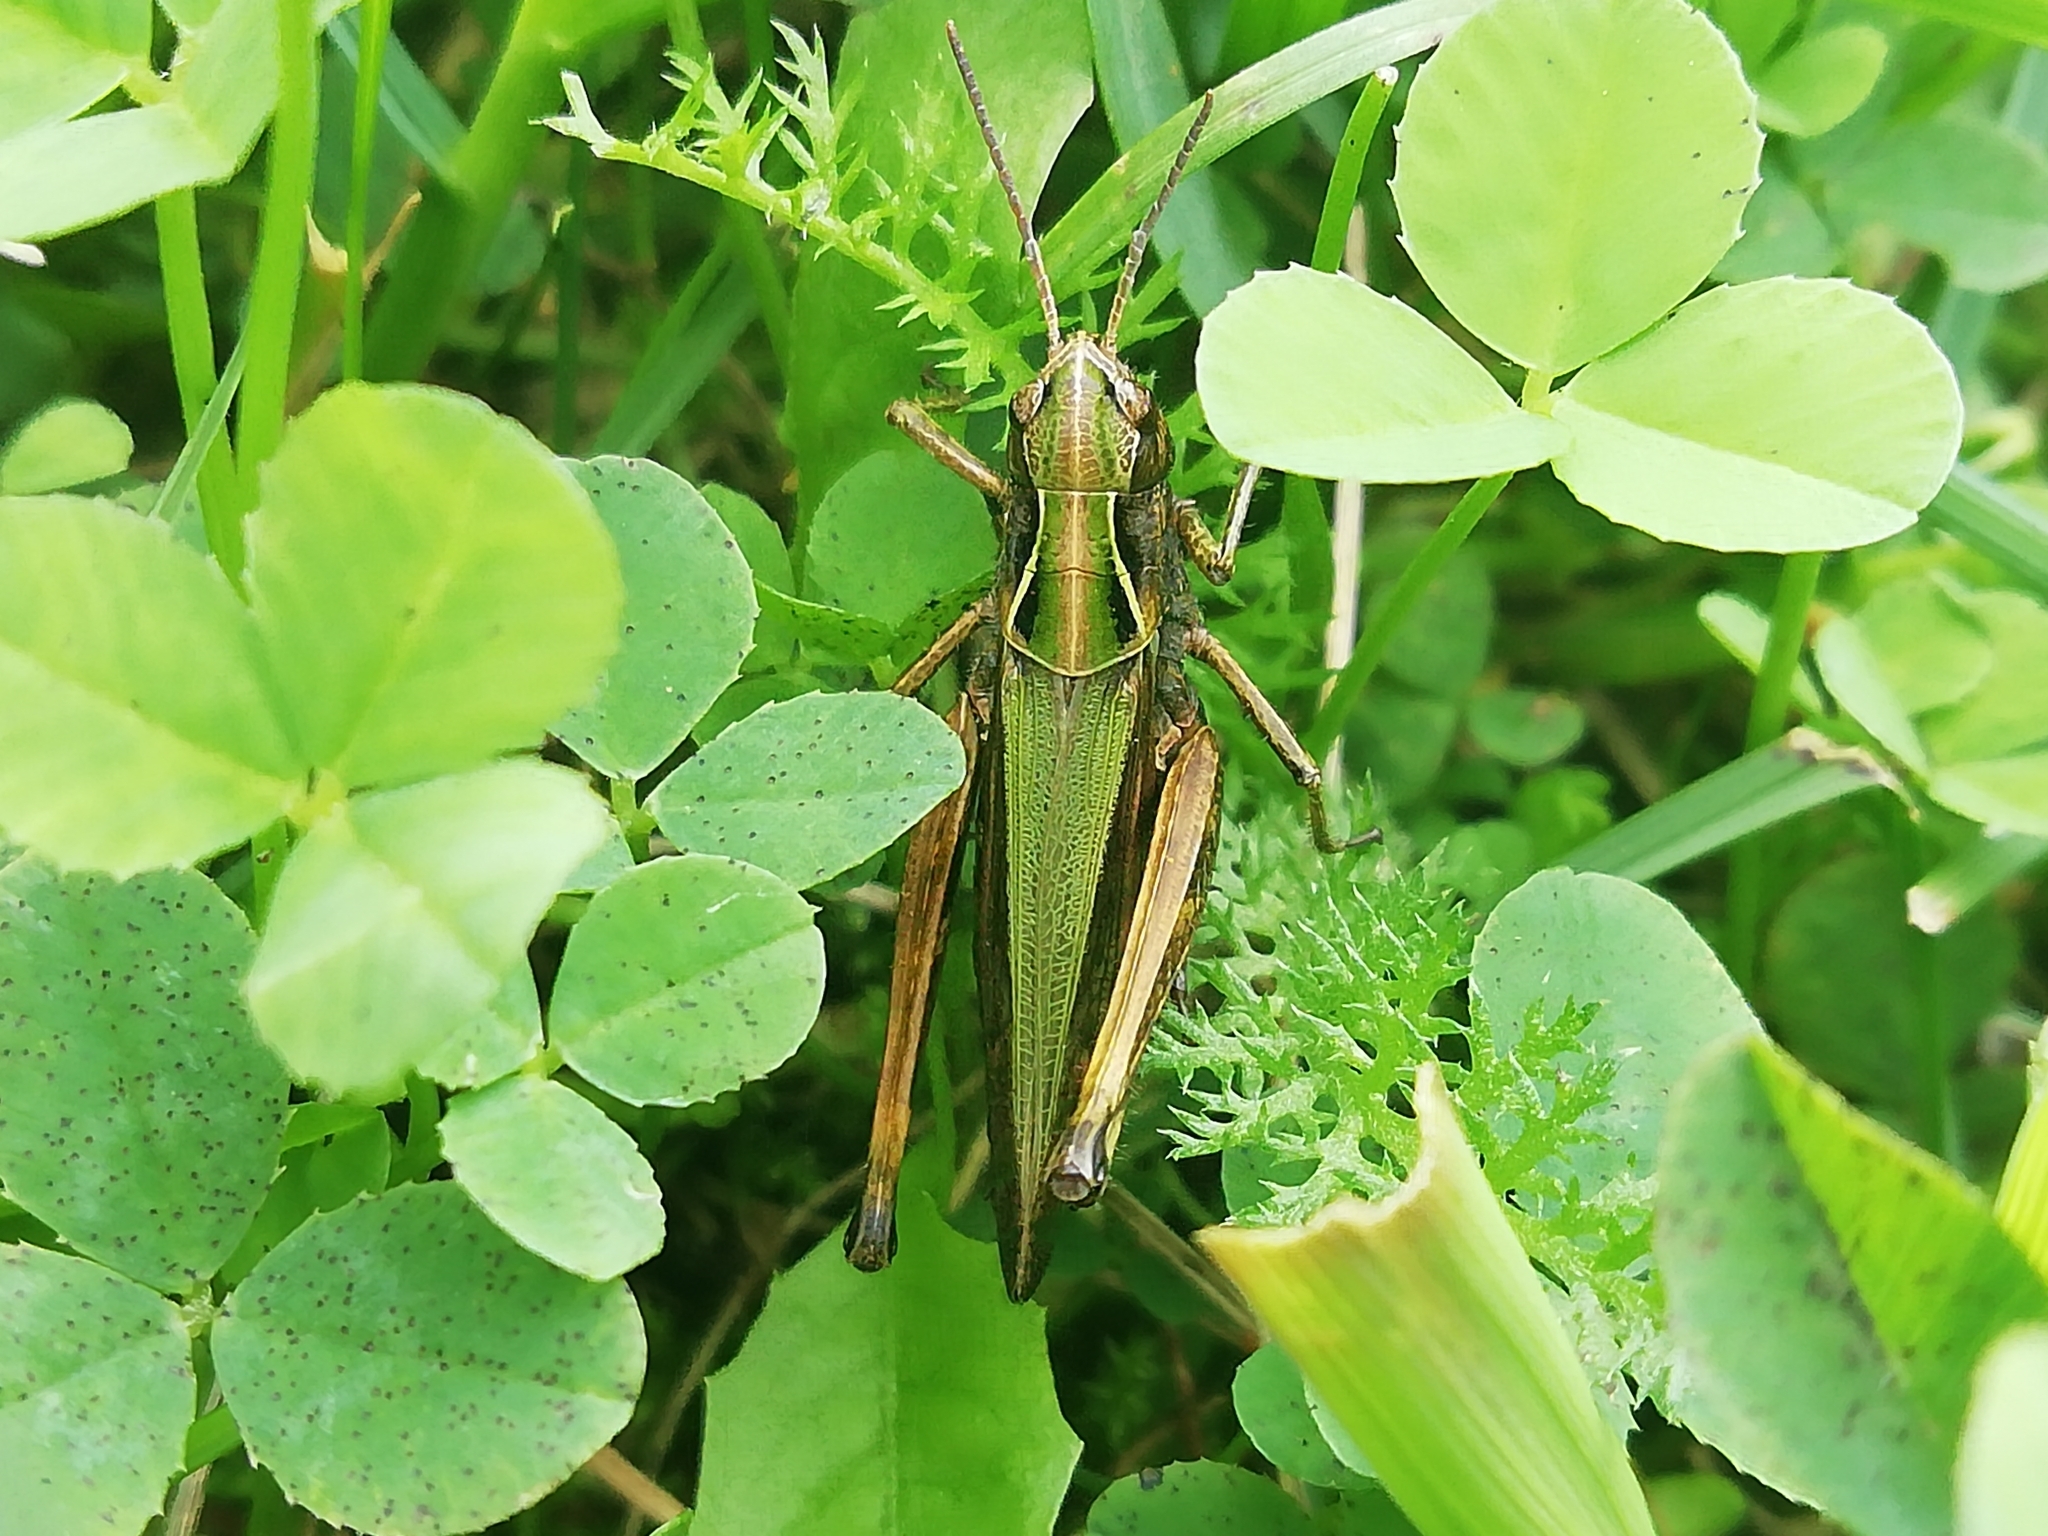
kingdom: Animalia
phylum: Arthropoda
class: Insecta
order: Orthoptera
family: Acrididae
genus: Omocestus
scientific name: Omocestus viridulus
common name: Common green grasshopper
